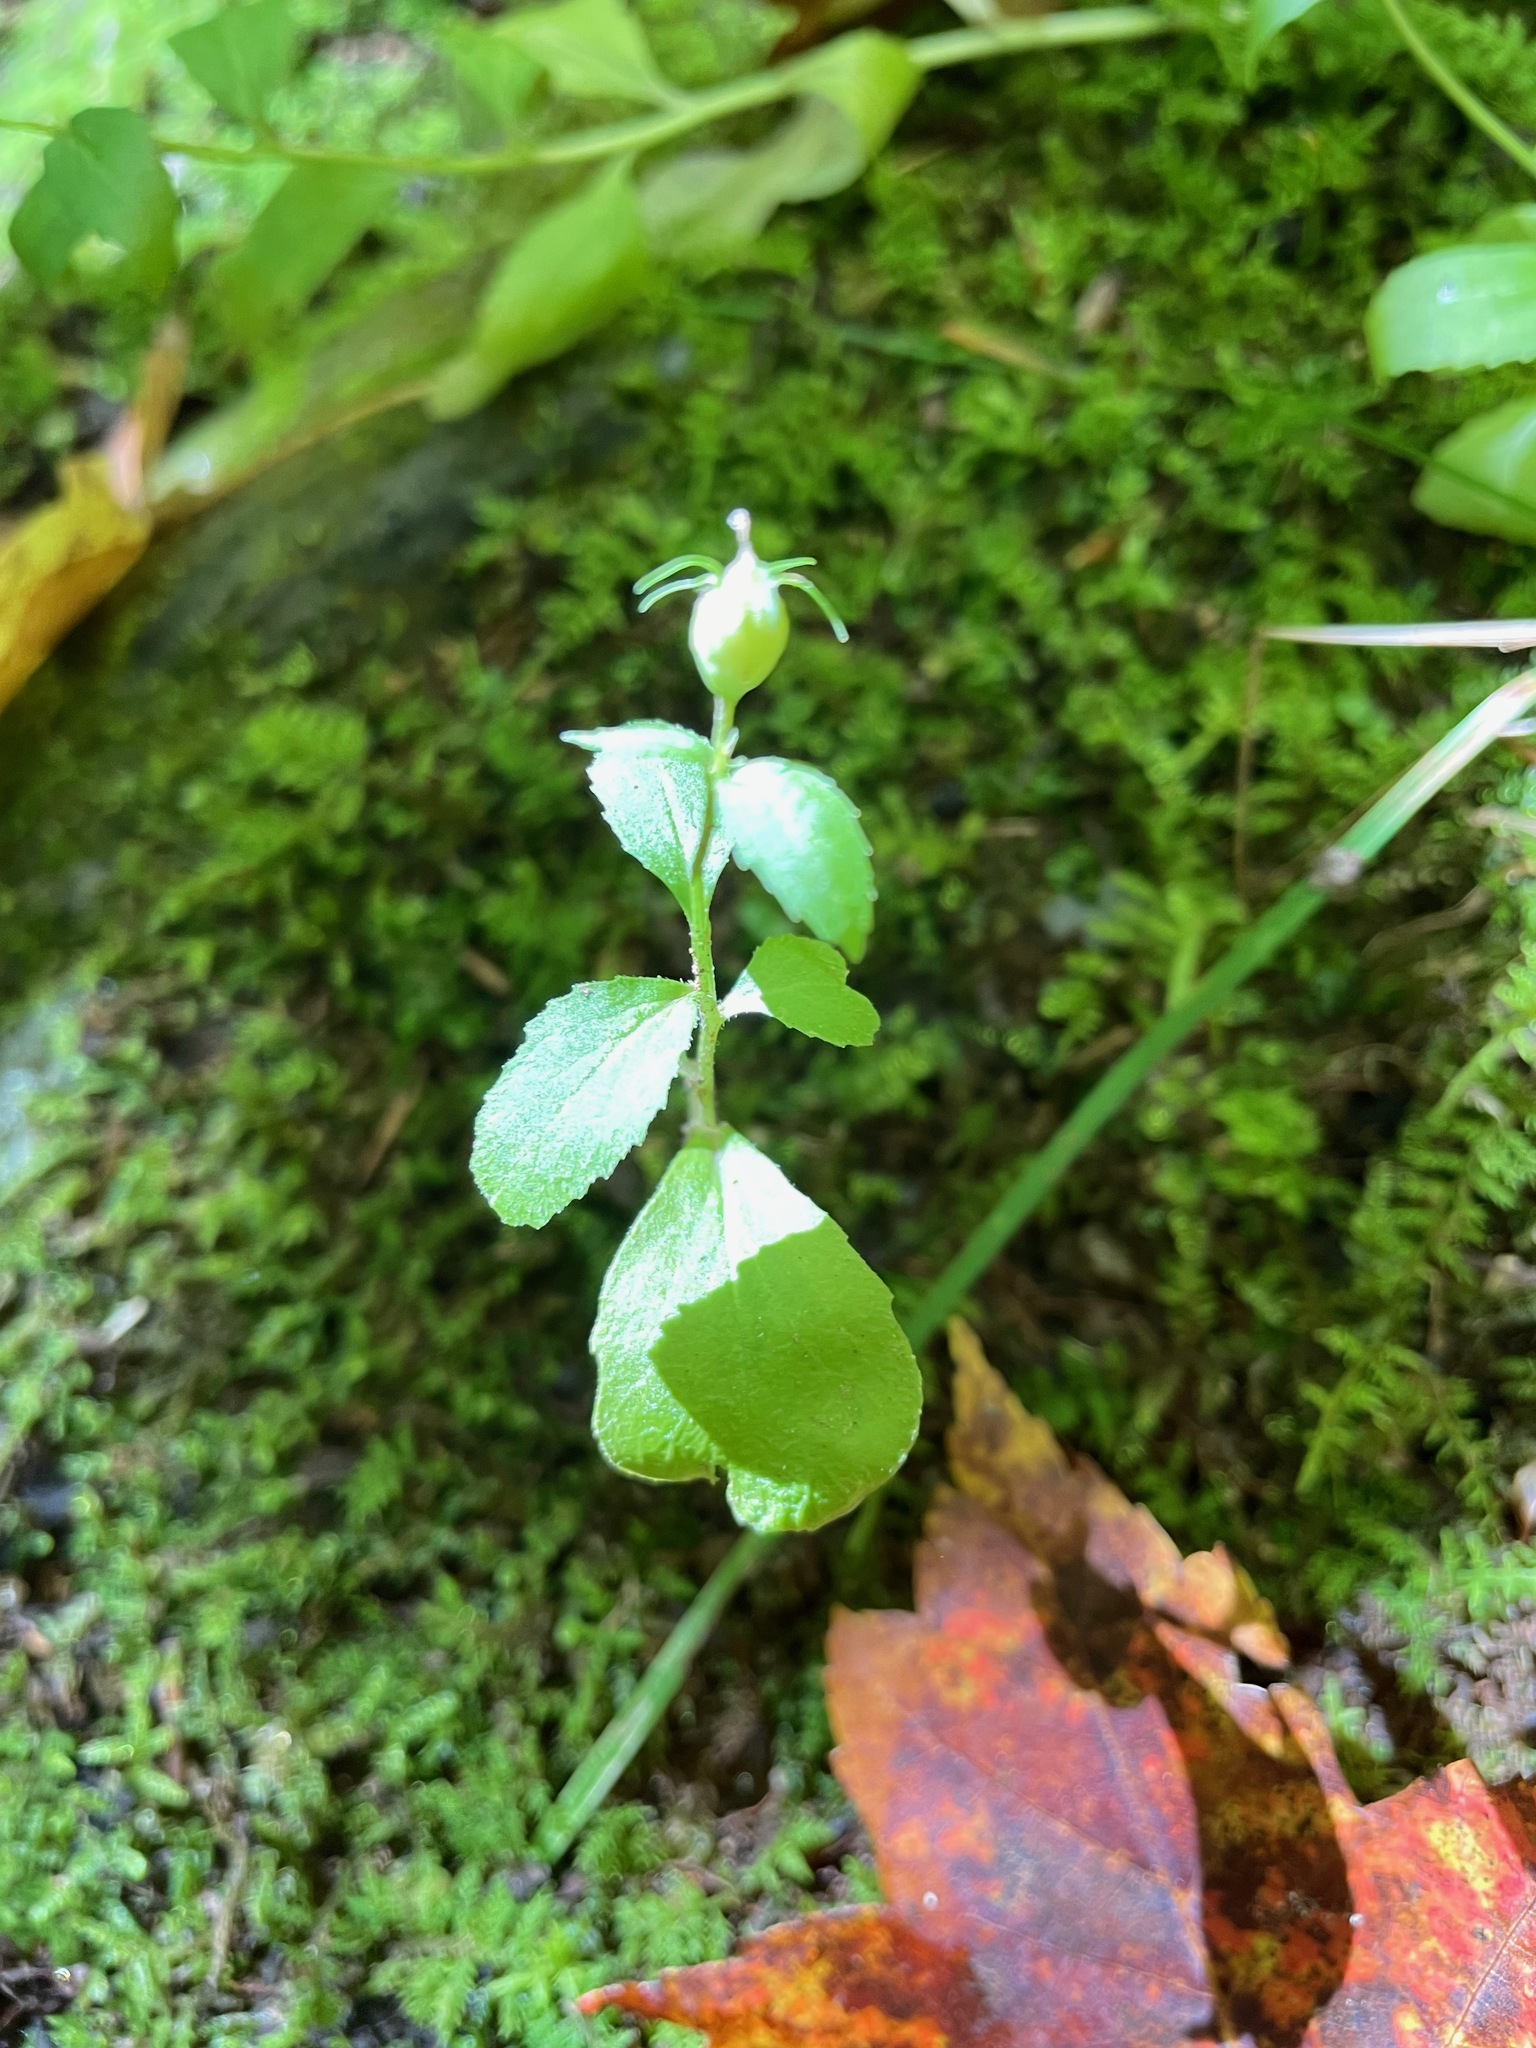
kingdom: Plantae
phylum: Tracheophyta
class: Magnoliopsida
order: Asterales
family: Campanulaceae
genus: Lobelia
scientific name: Lobelia inflata
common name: Indian tobacco
